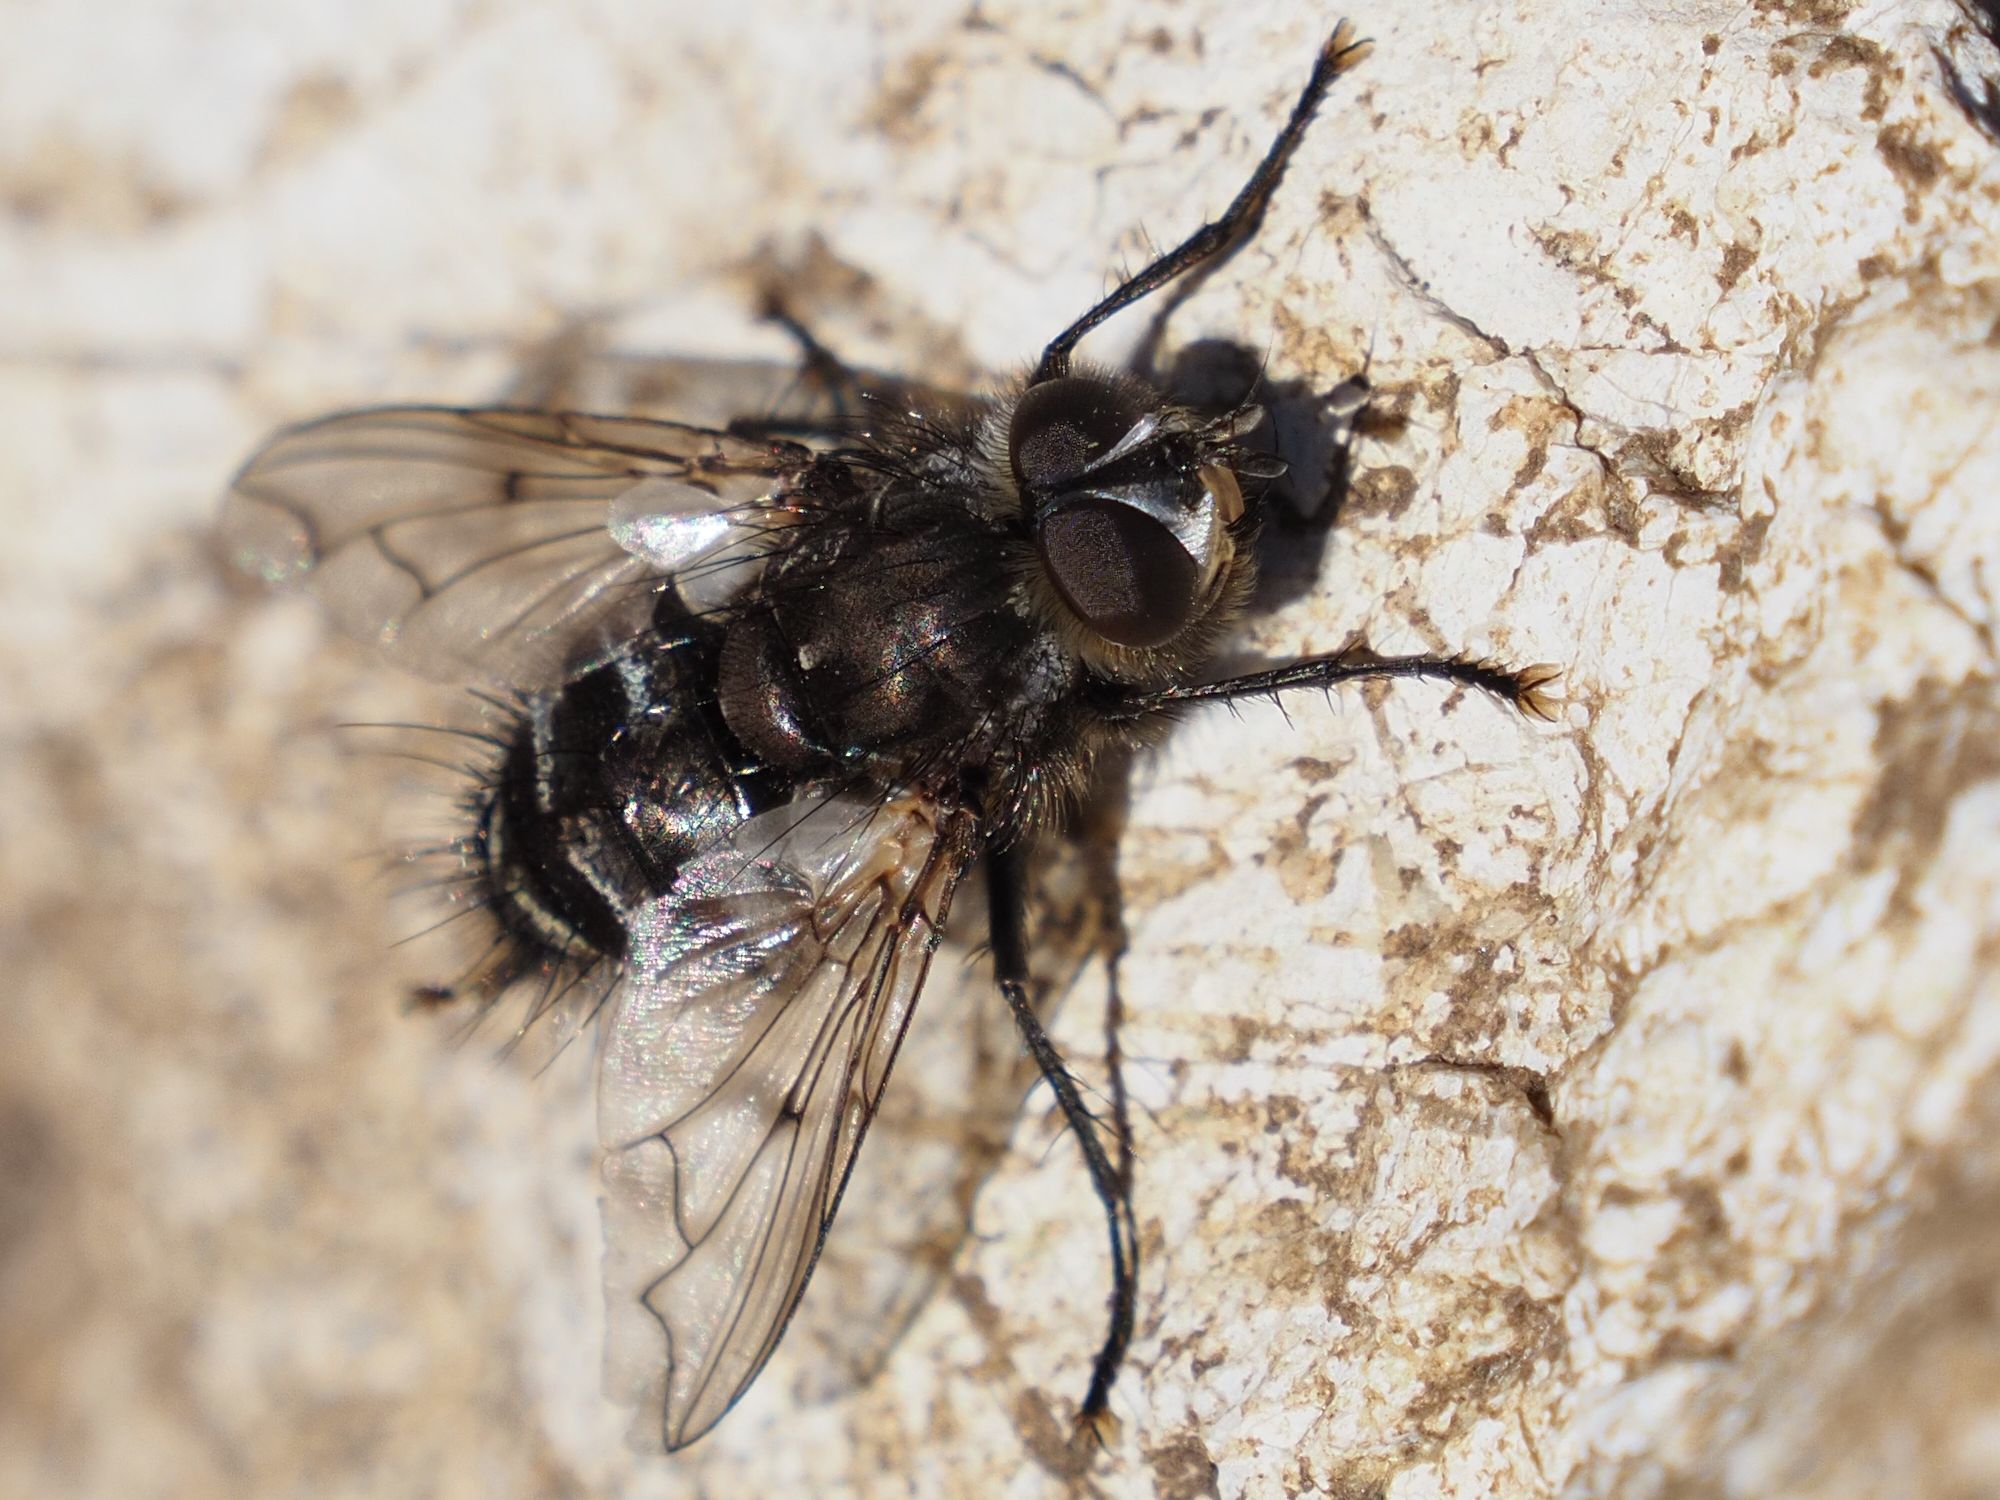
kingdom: Animalia
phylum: Arthropoda
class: Insecta
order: Diptera
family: Tachinidae
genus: Panzeria
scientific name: Panzeria puparum
